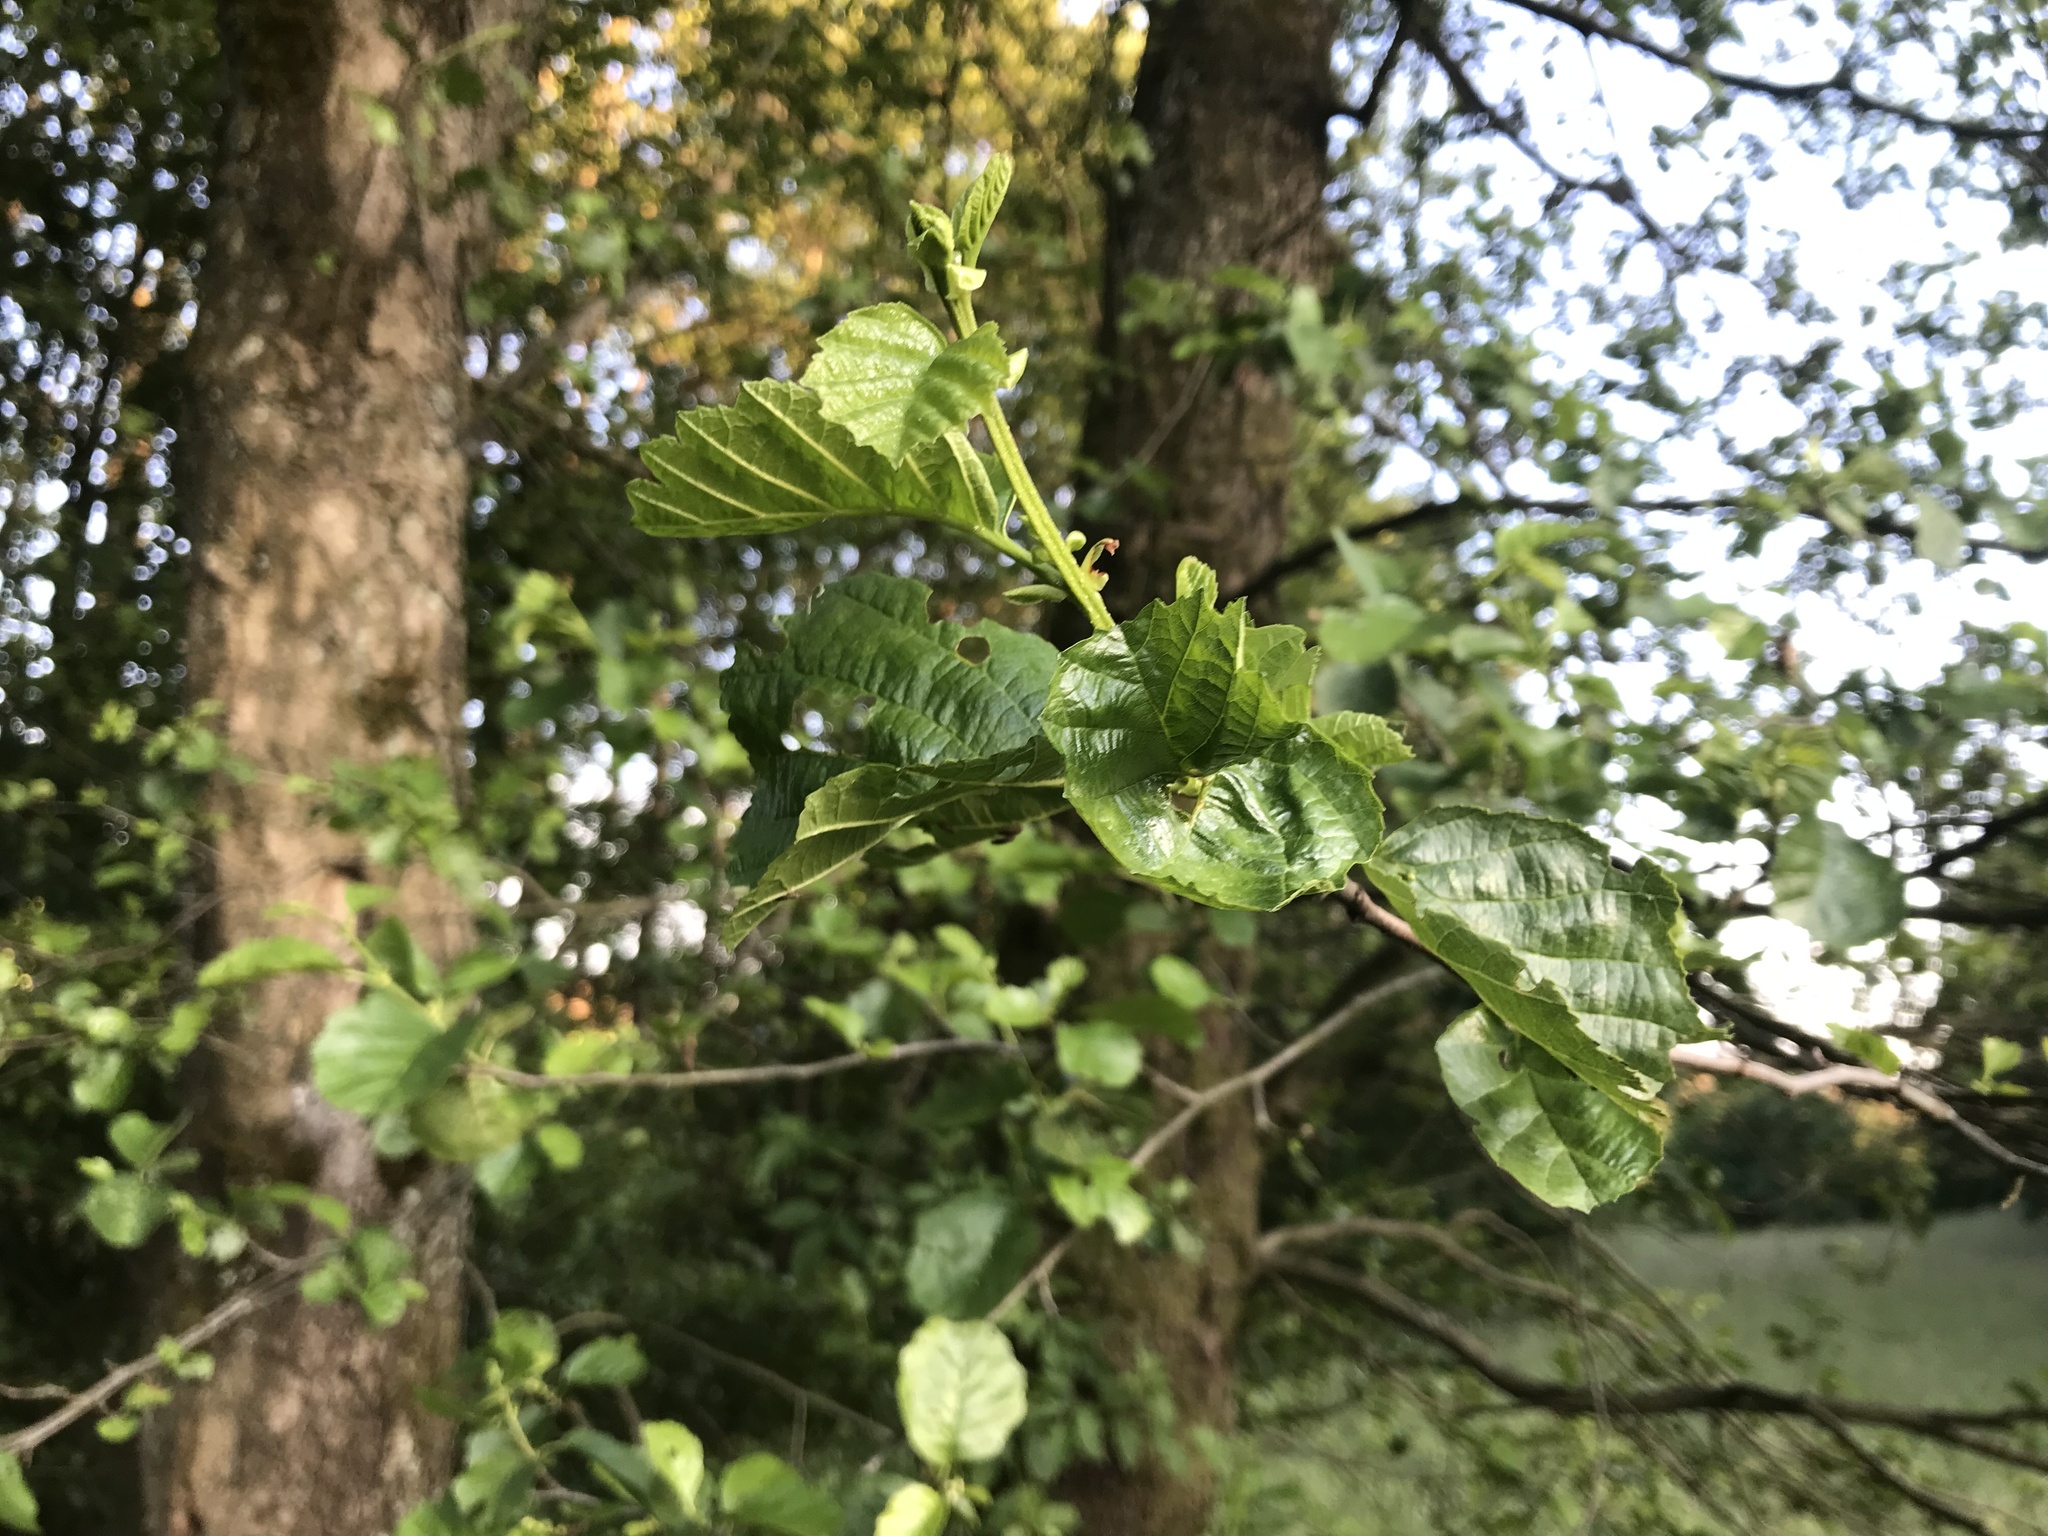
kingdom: Plantae
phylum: Tracheophyta
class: Magnoliopsida
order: Fagales
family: Betulaceae
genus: Alnus
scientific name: Alnus glutinosa
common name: Black alder
